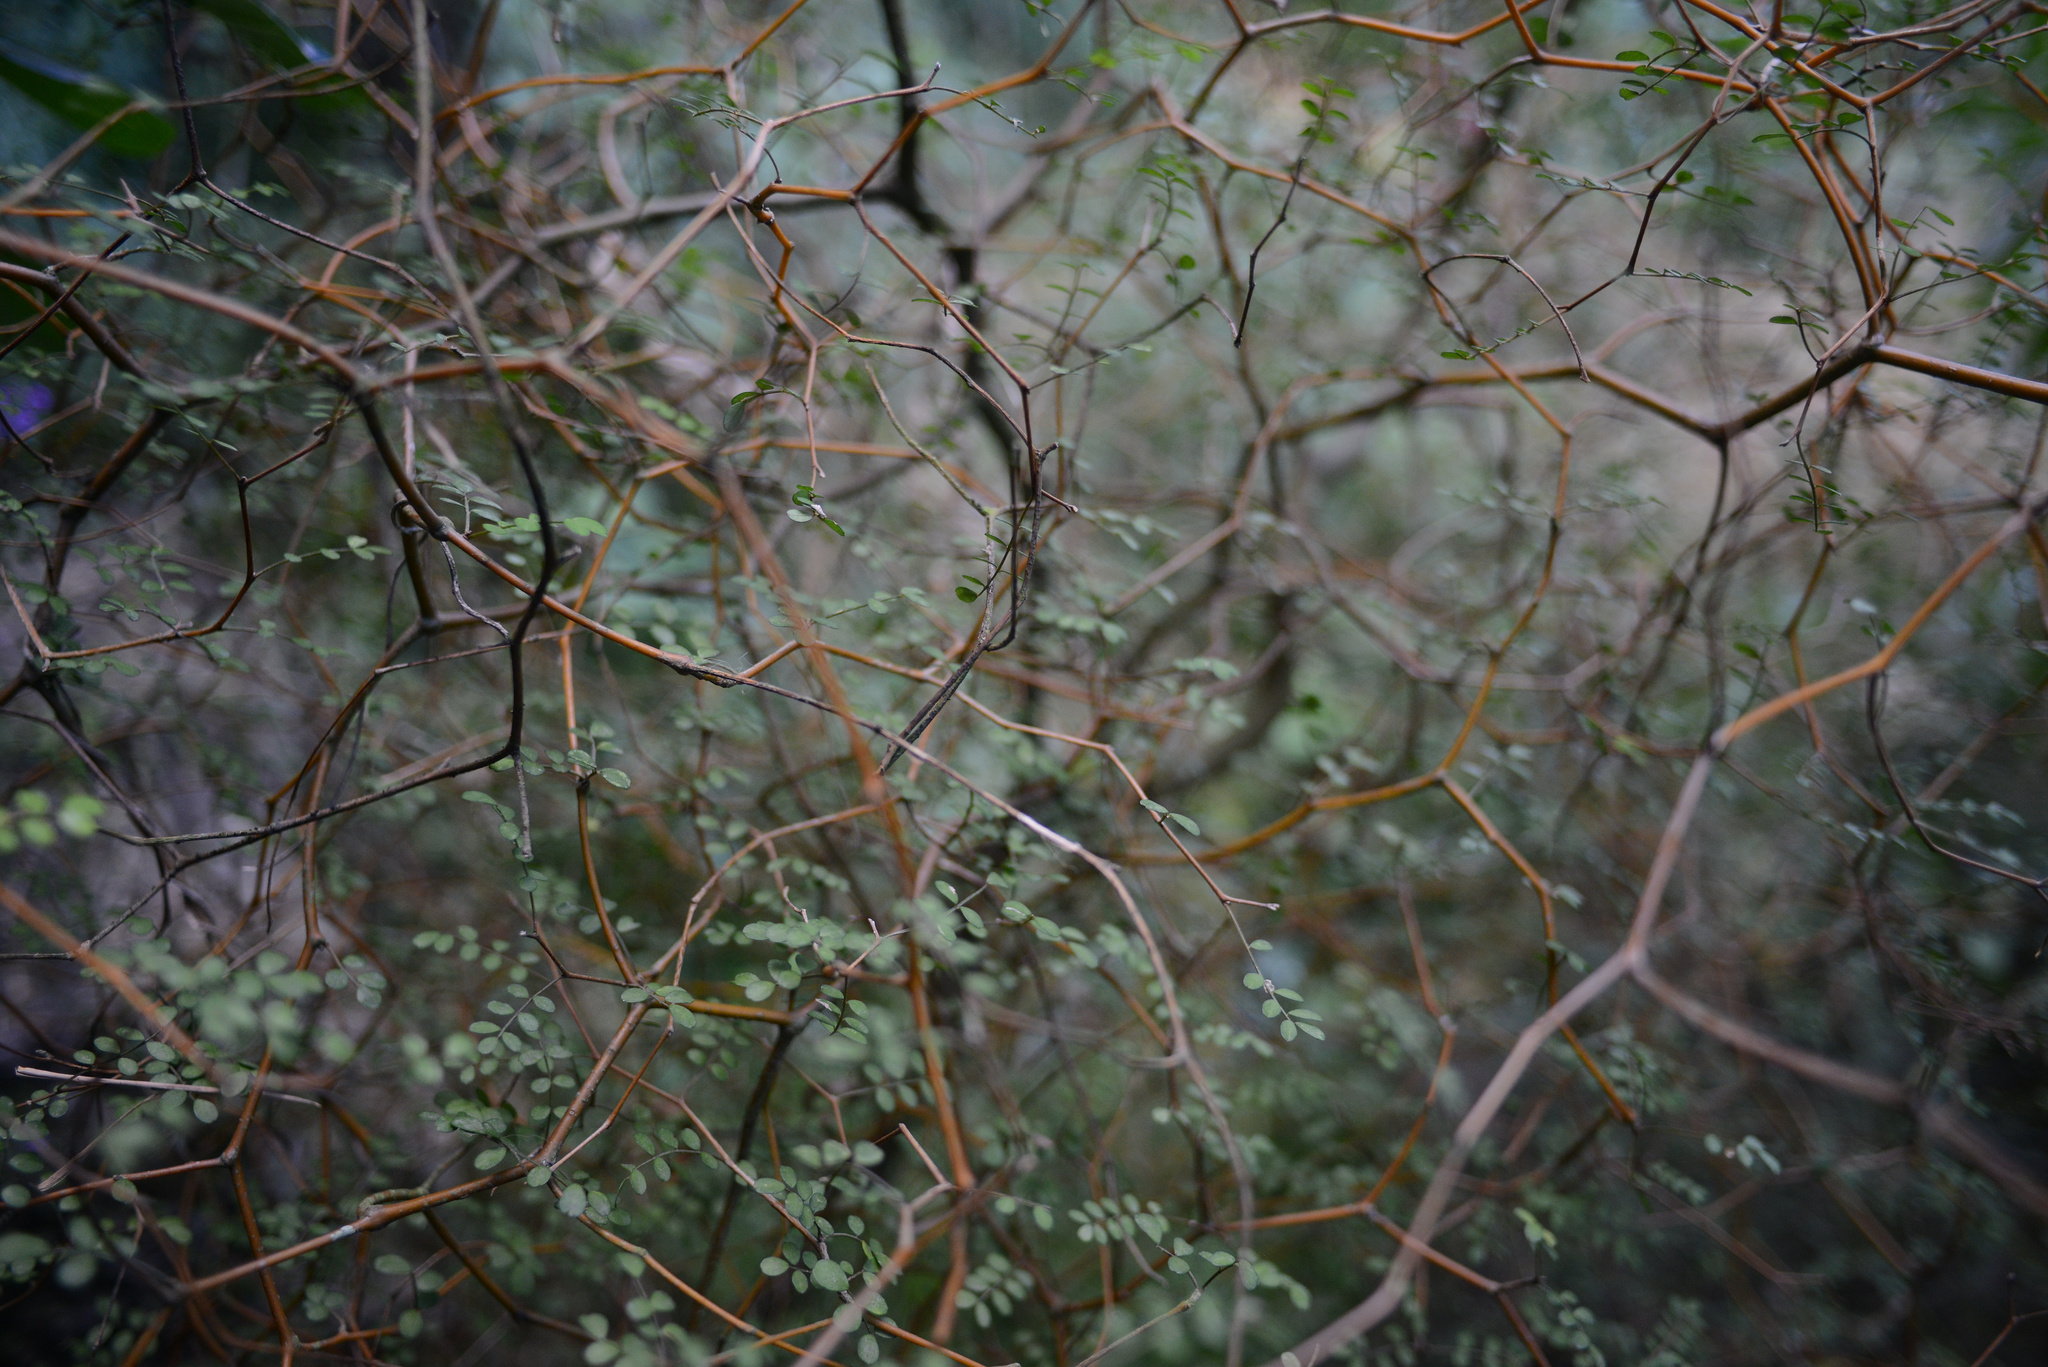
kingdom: Plantae
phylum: Tracheophyta
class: Magnoliopsida
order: Fabales
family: Fabaceae
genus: Sophora
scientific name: Sophora microphylla
